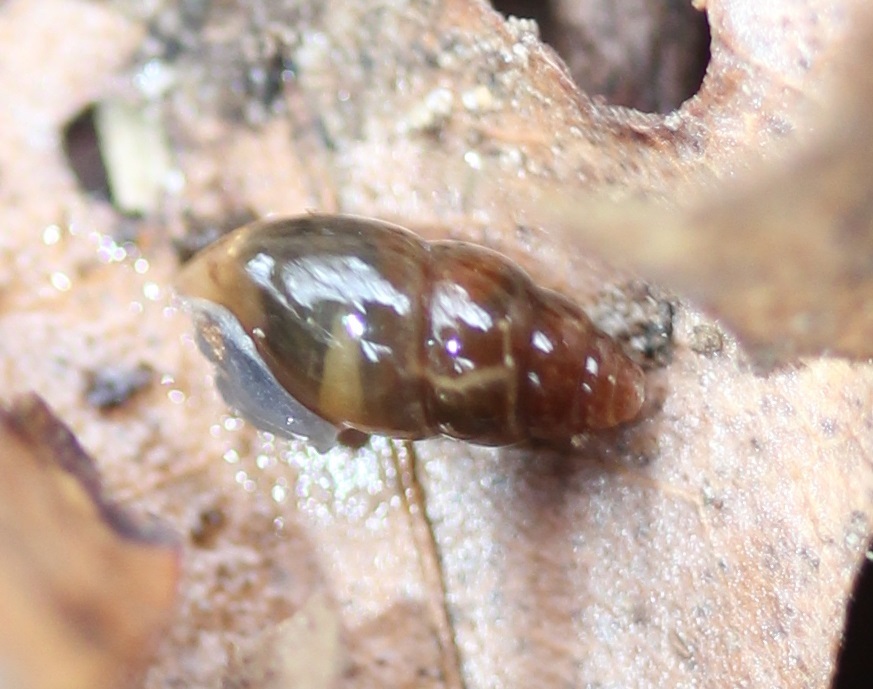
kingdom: Animalia
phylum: Mollusca
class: Gastropoda
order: Stylommatophora
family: Cochlicopidae
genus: Cochlicopa
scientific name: Cochlicopa lubrica
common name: Glossy pillar snail
